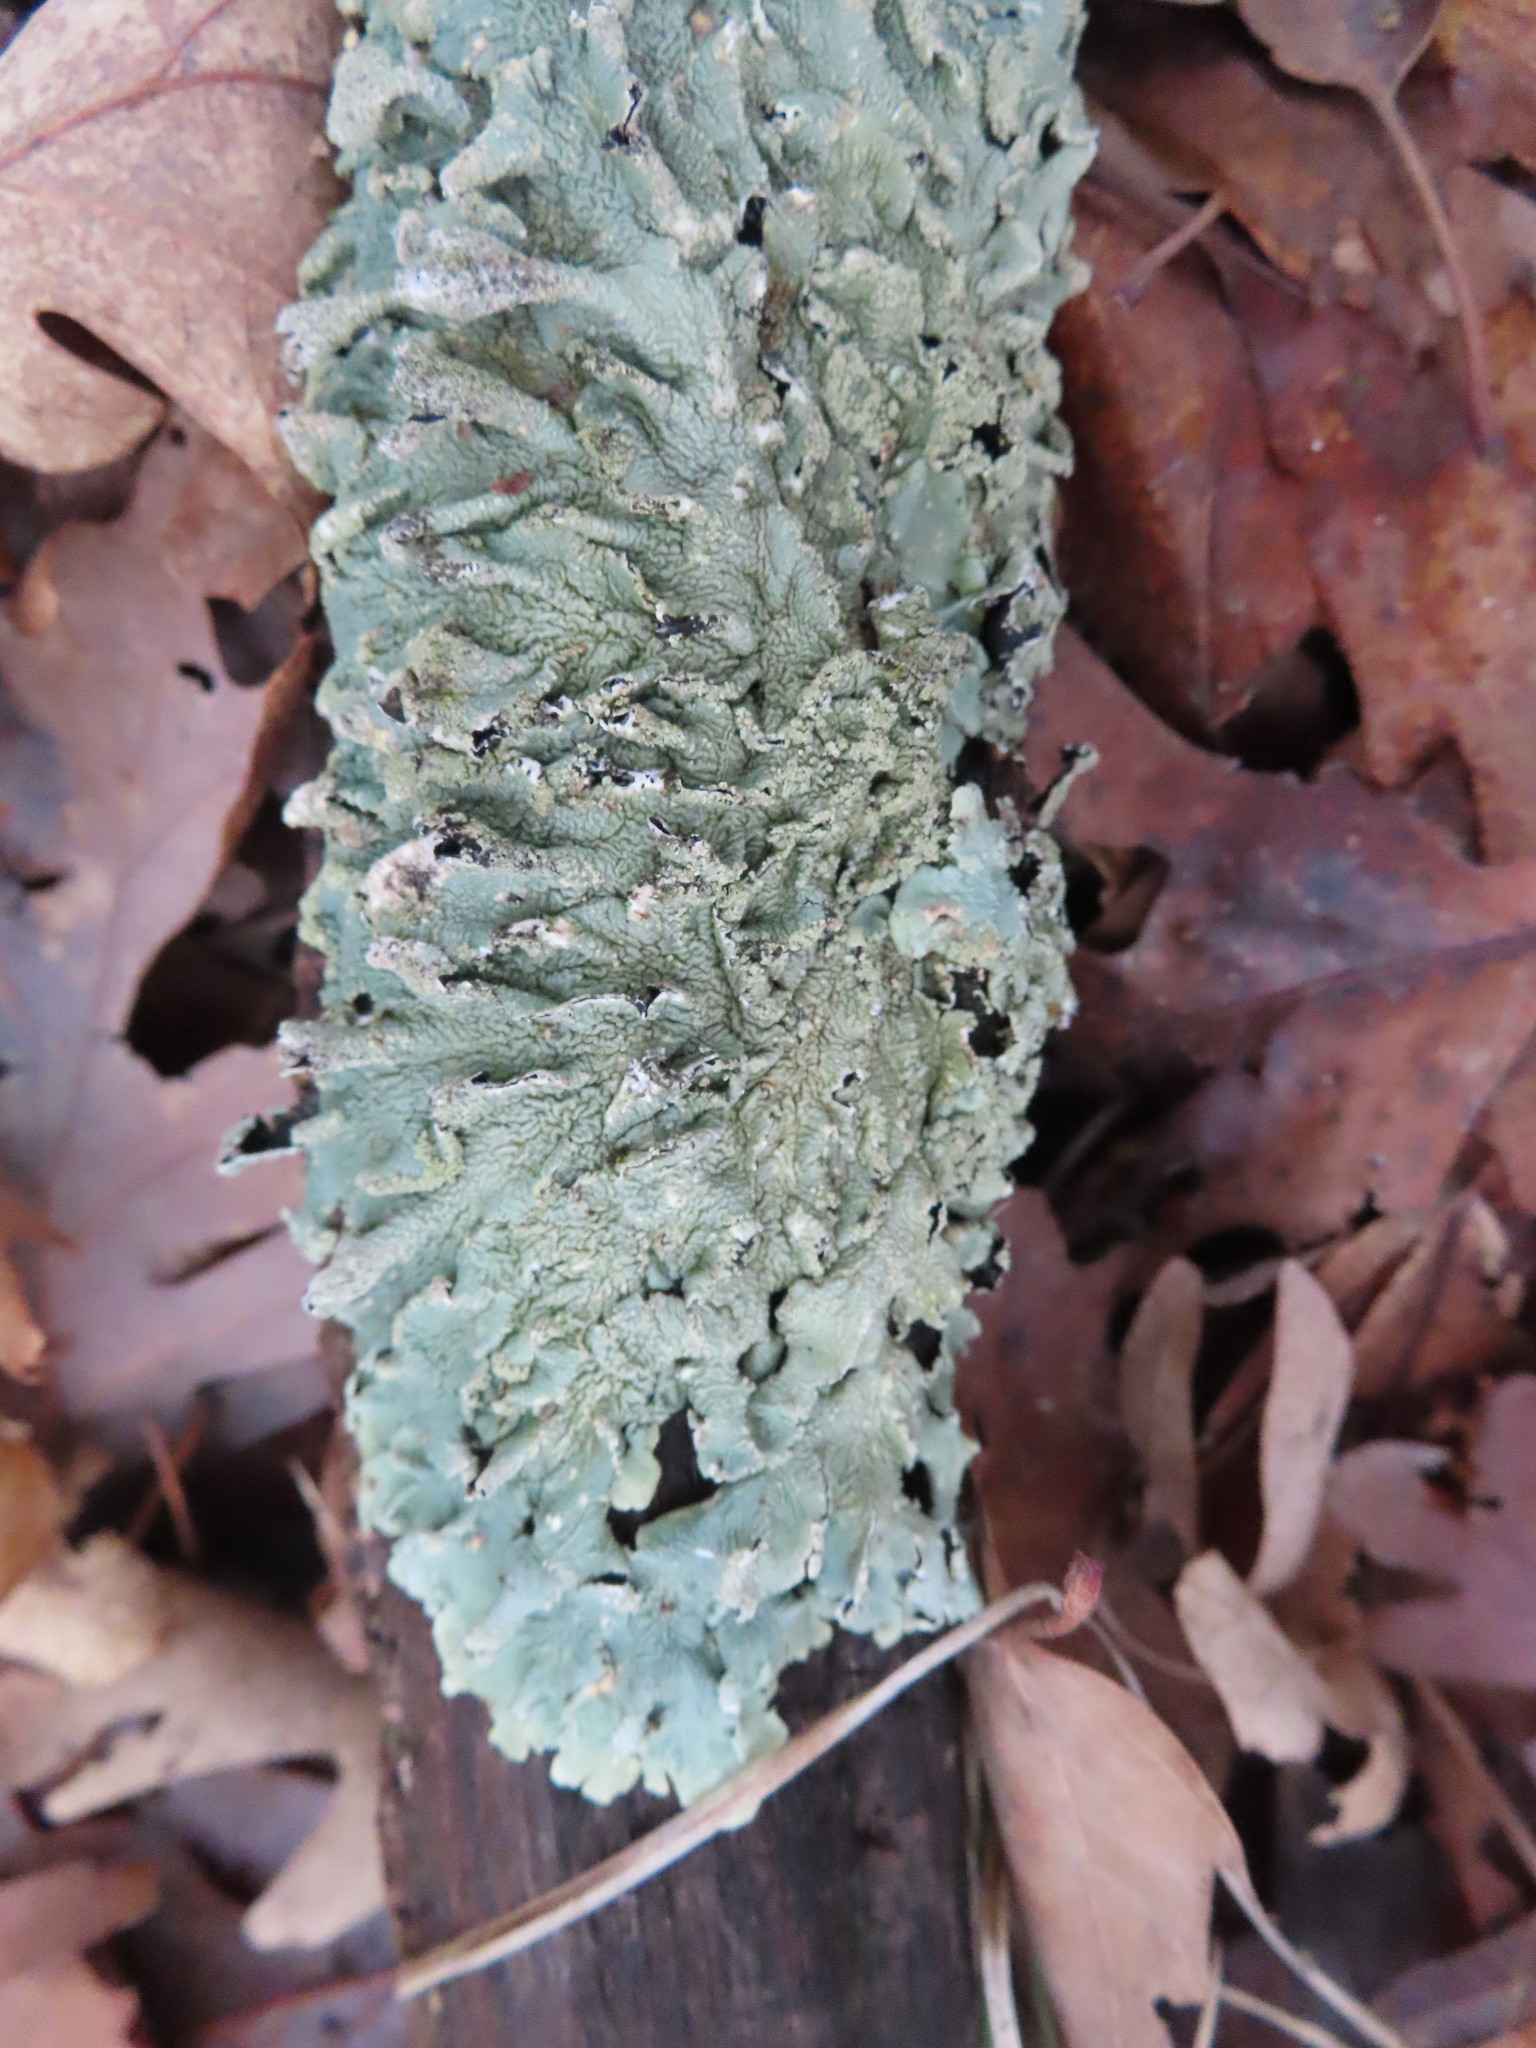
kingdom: Fungi
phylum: Ascomycota
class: Lecanoromycetes
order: Lecanorales
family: Parmeliaceae
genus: Flavoparmelia
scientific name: Flavoparmelia caperata
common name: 40-mile per hour lichen
